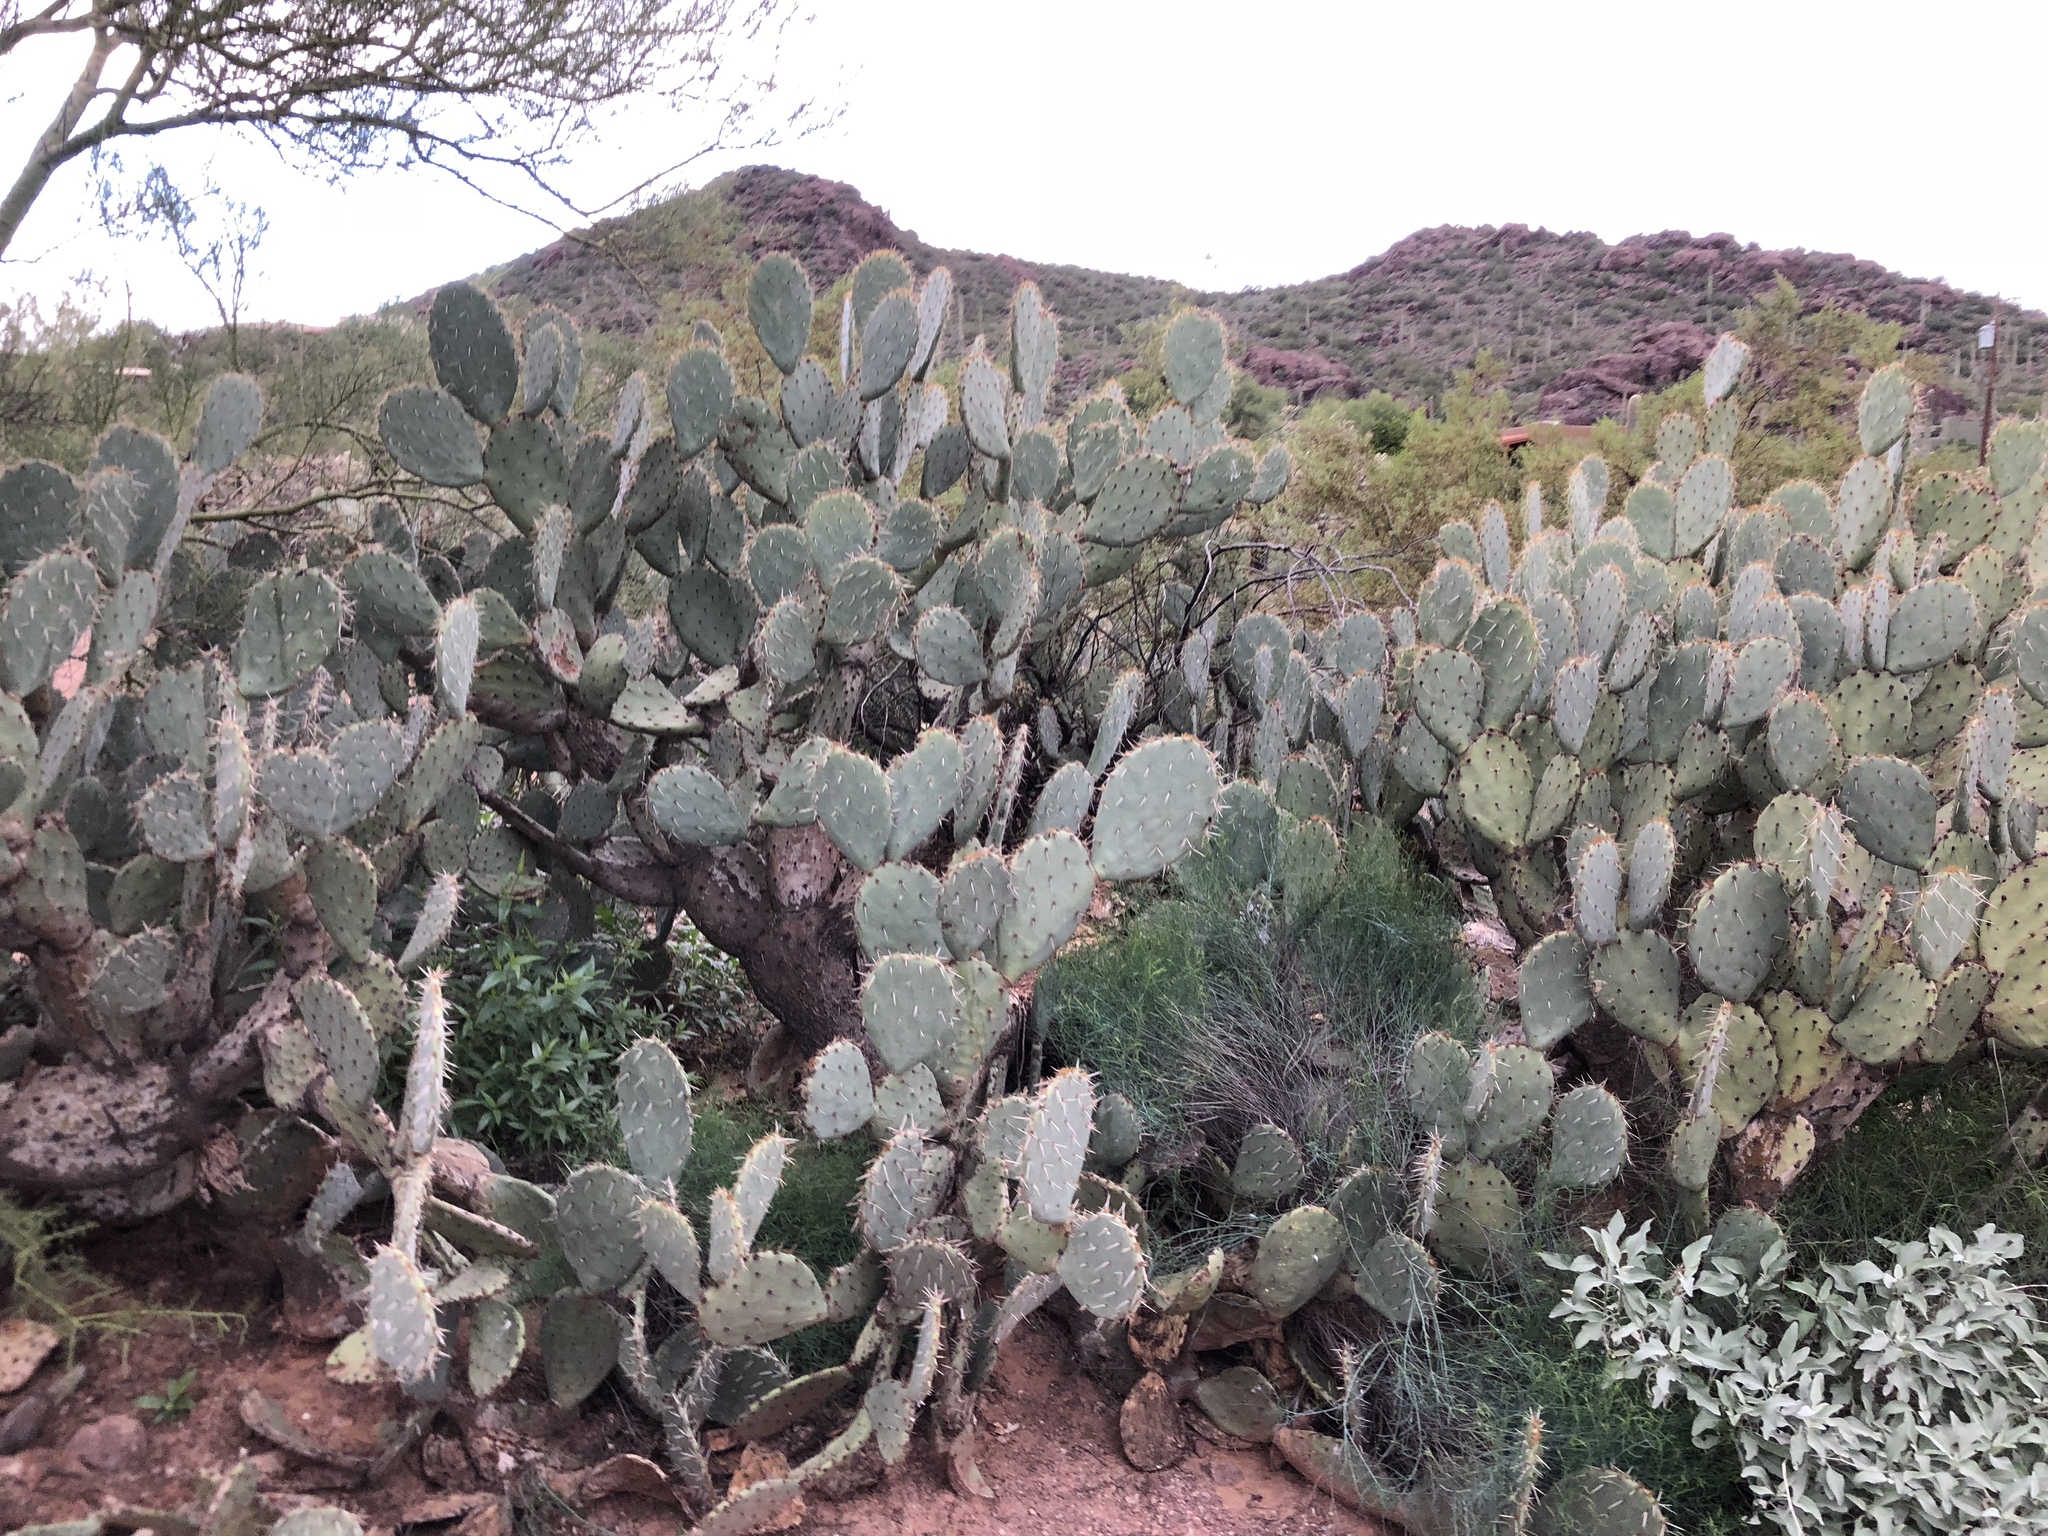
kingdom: Plantae
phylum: Tracheophyta
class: Magnoliopsida
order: Caryophyllales
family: Cactaceae
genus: Opuntia
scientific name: Opuntia engelmannii
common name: Cactus-apple
